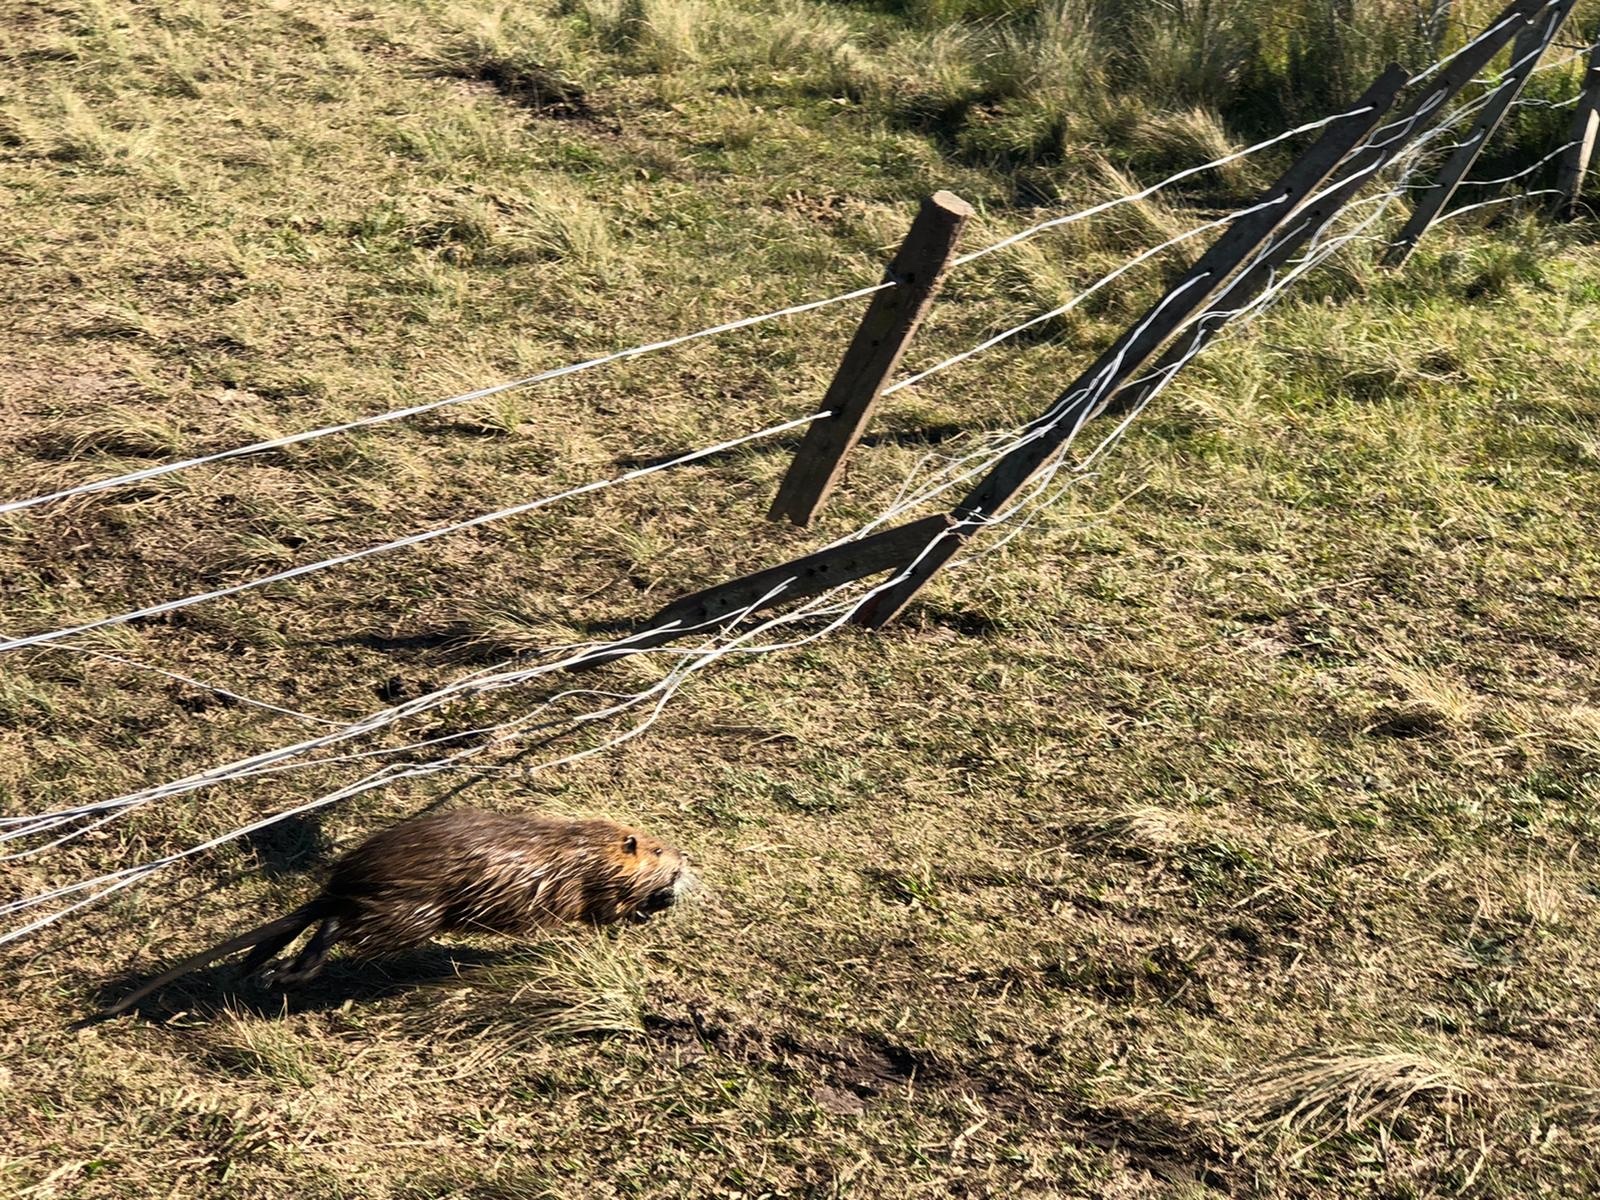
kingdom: Animalia
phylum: Chordata
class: Mammalia
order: Rodentia
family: Myocastoridae
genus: Myocastor
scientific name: Myocastor coypus
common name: Coypu
